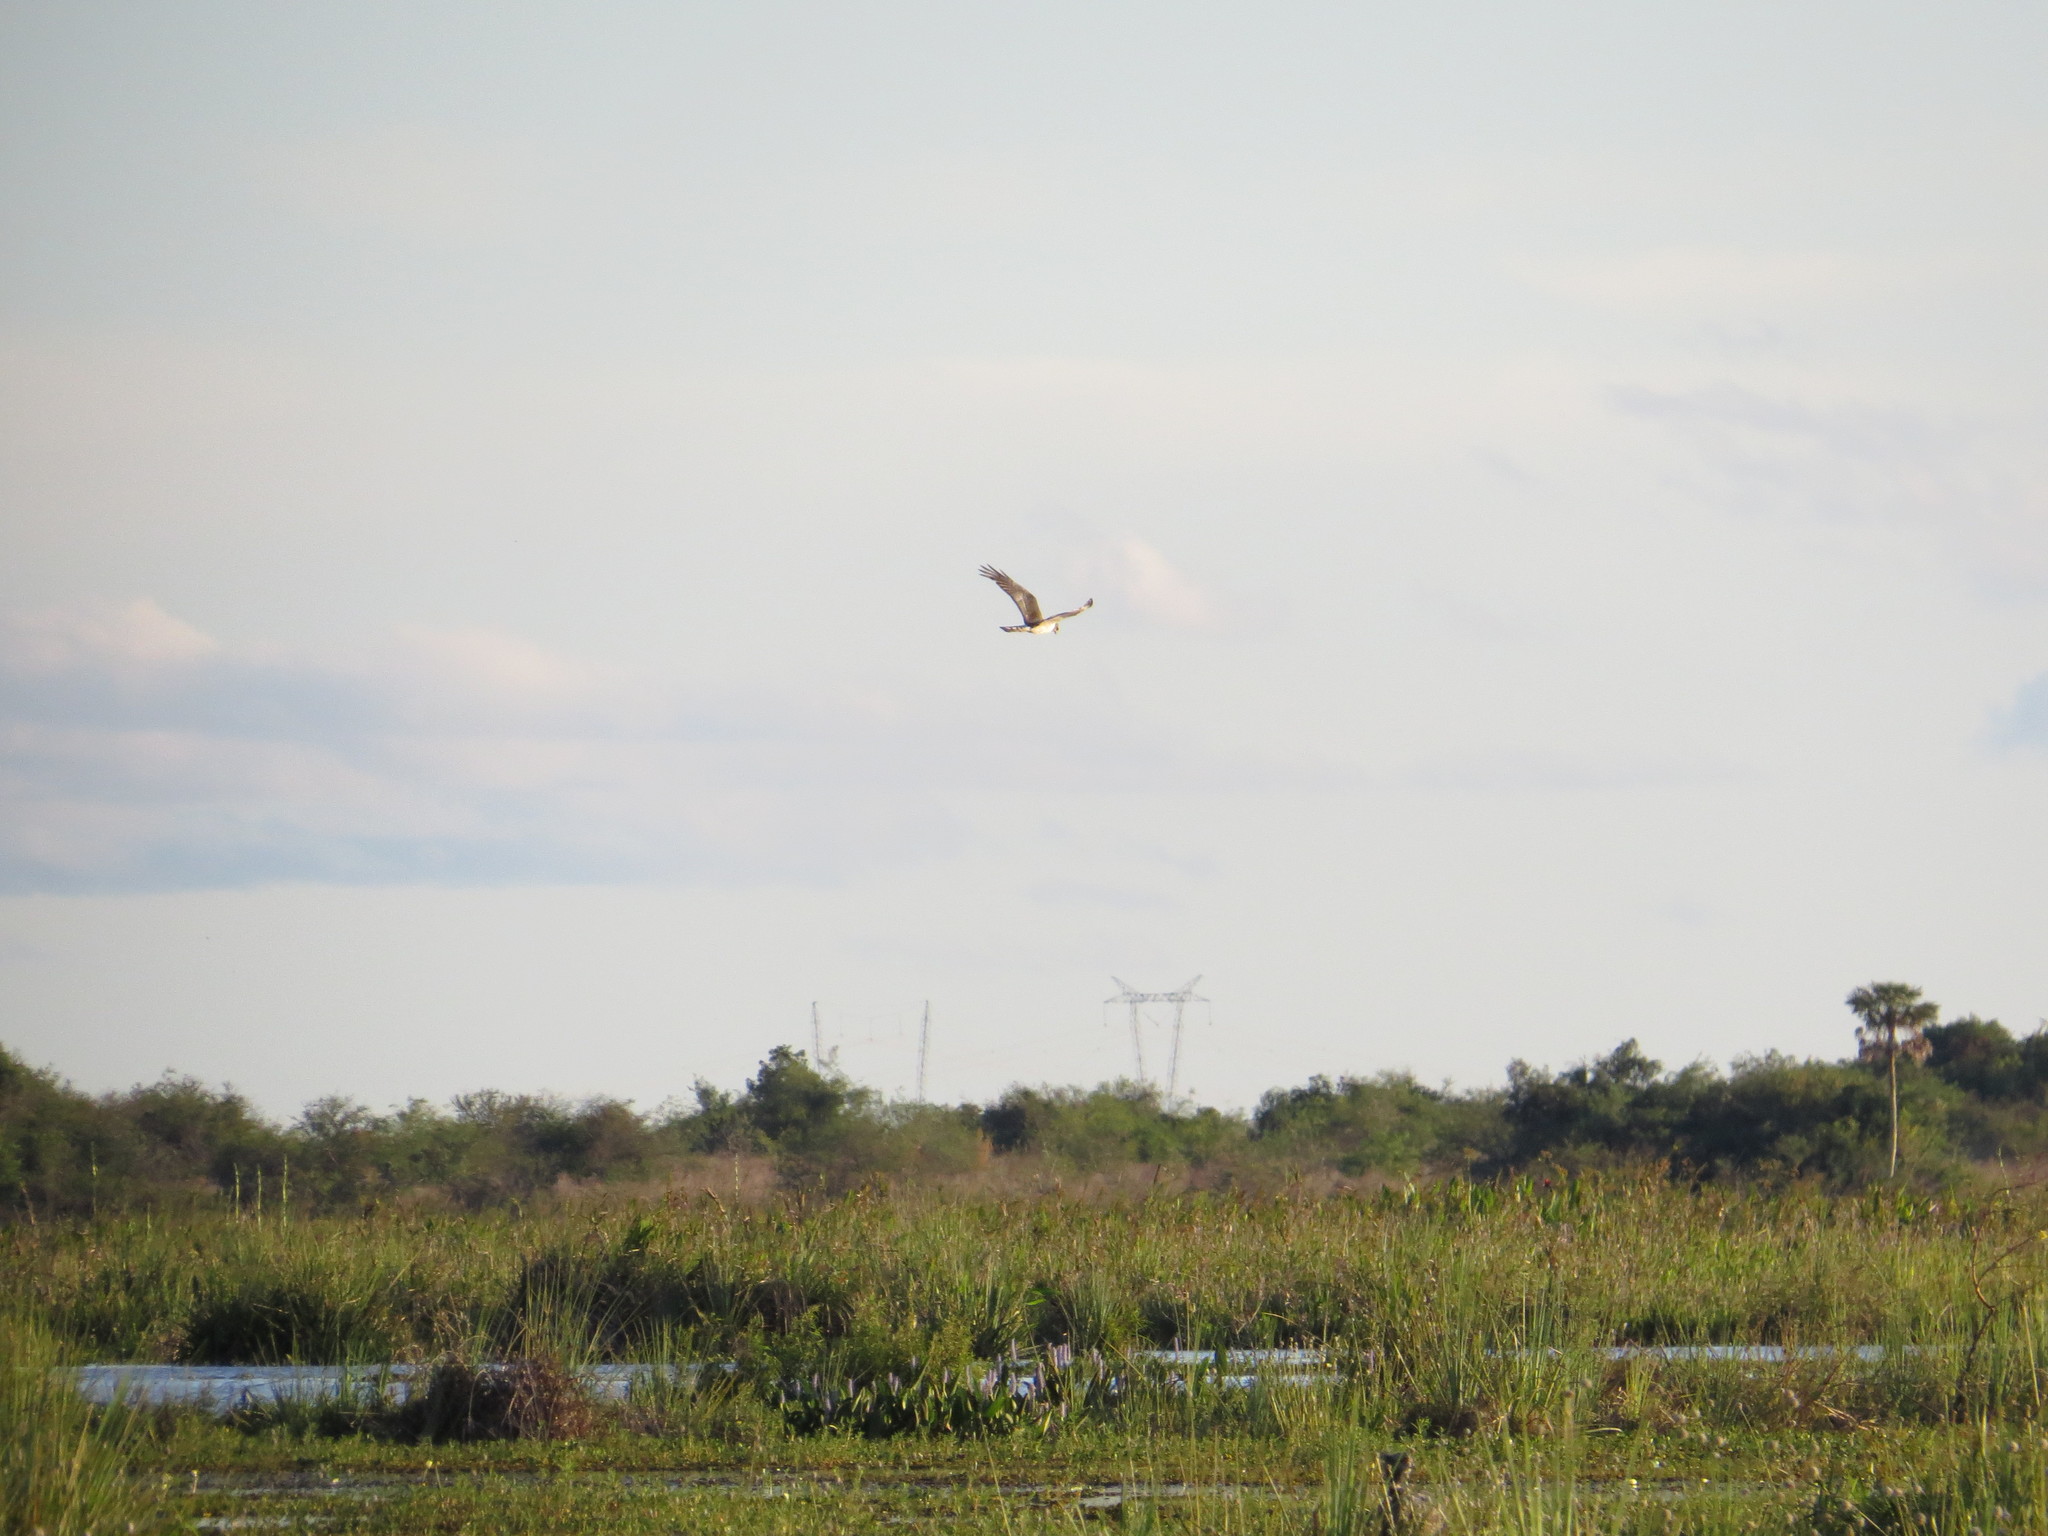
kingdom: Animalia
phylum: Chordata
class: Aves
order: Accipitriformes
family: Accipitridae
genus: Circus
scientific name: Circus buffoni
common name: Long-winged harrier
